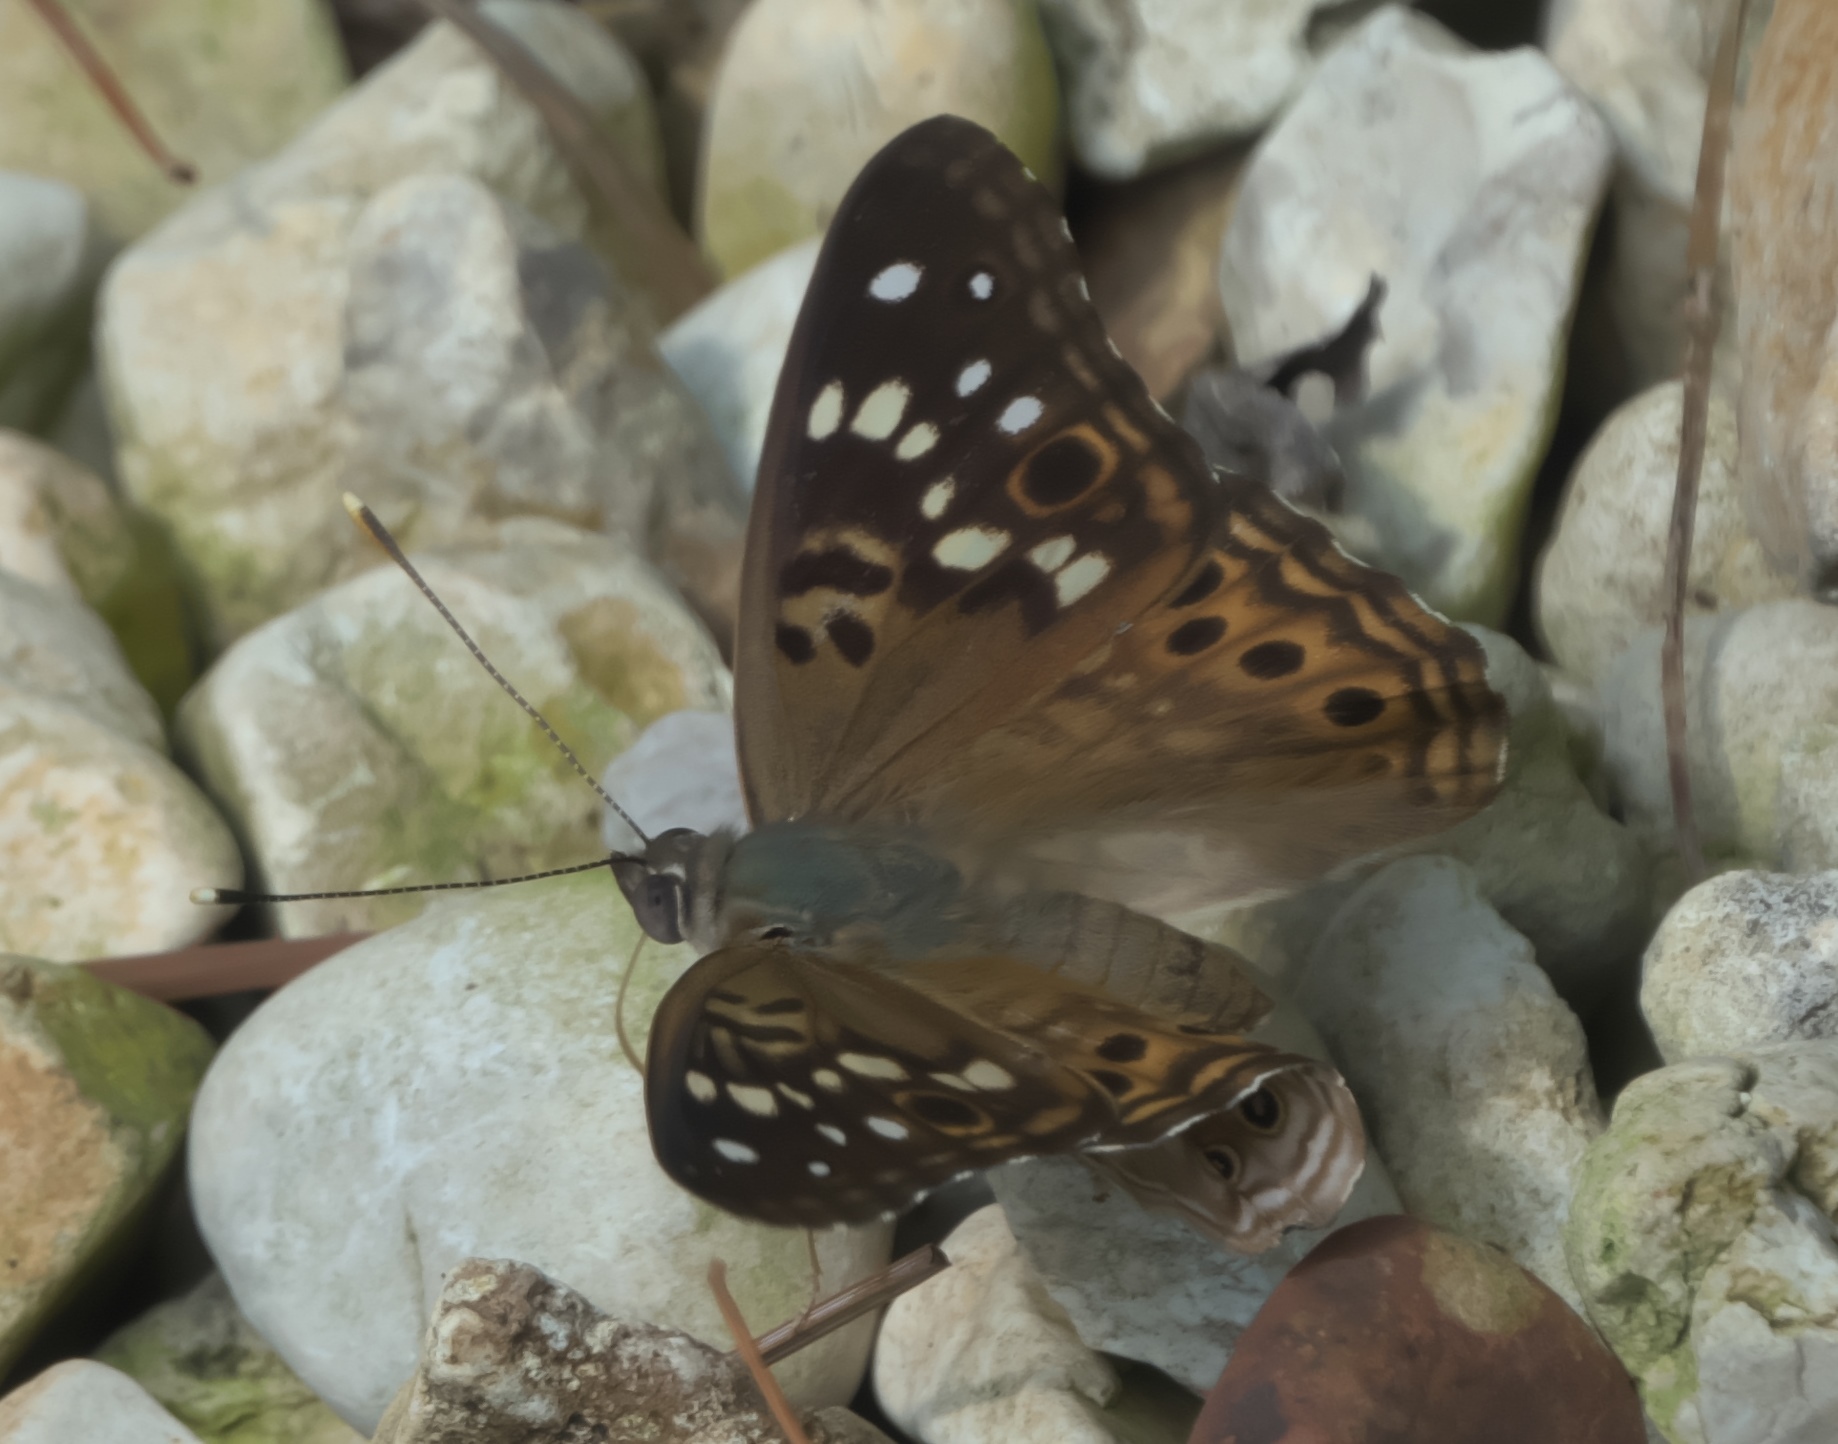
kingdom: Animalia
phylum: Arthropoda
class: Insecta
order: Lepidoptera
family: Nymphalidae
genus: Asterocampa
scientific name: Asterocampa celtis
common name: Hackberry emperor
